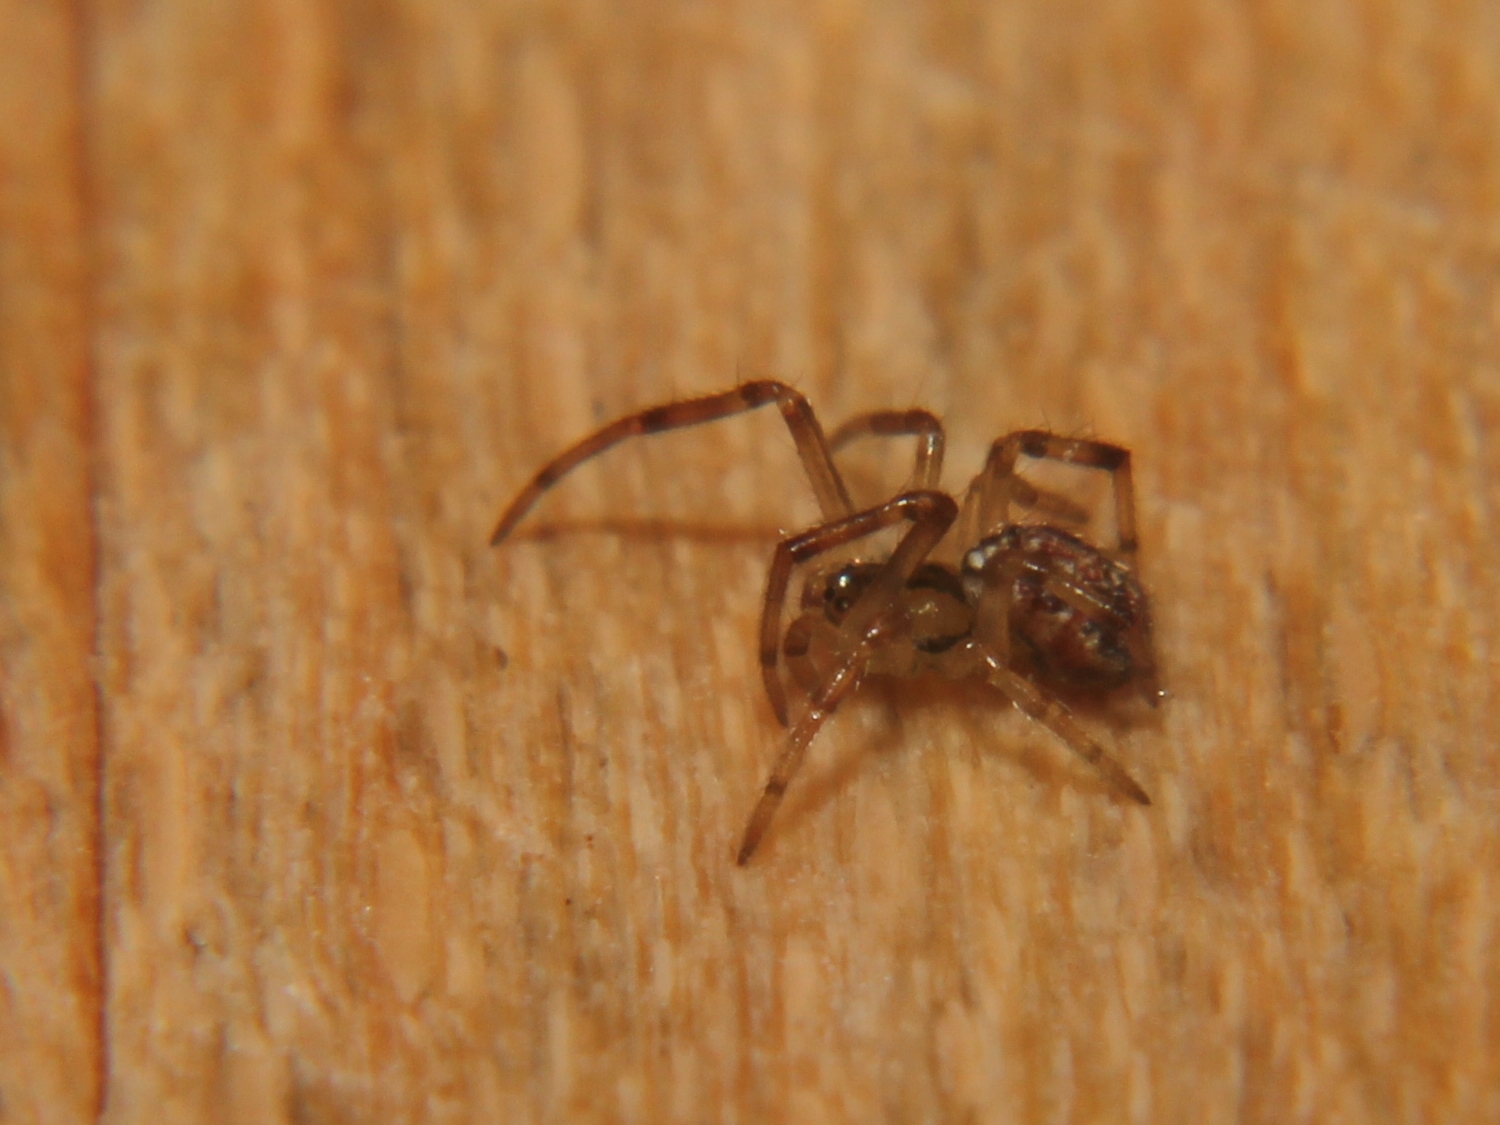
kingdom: Animalia
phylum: Arthropoda
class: Arachnida
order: Araneae
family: Theridiidae
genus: Phylloneta
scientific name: Phylloneta impressa
